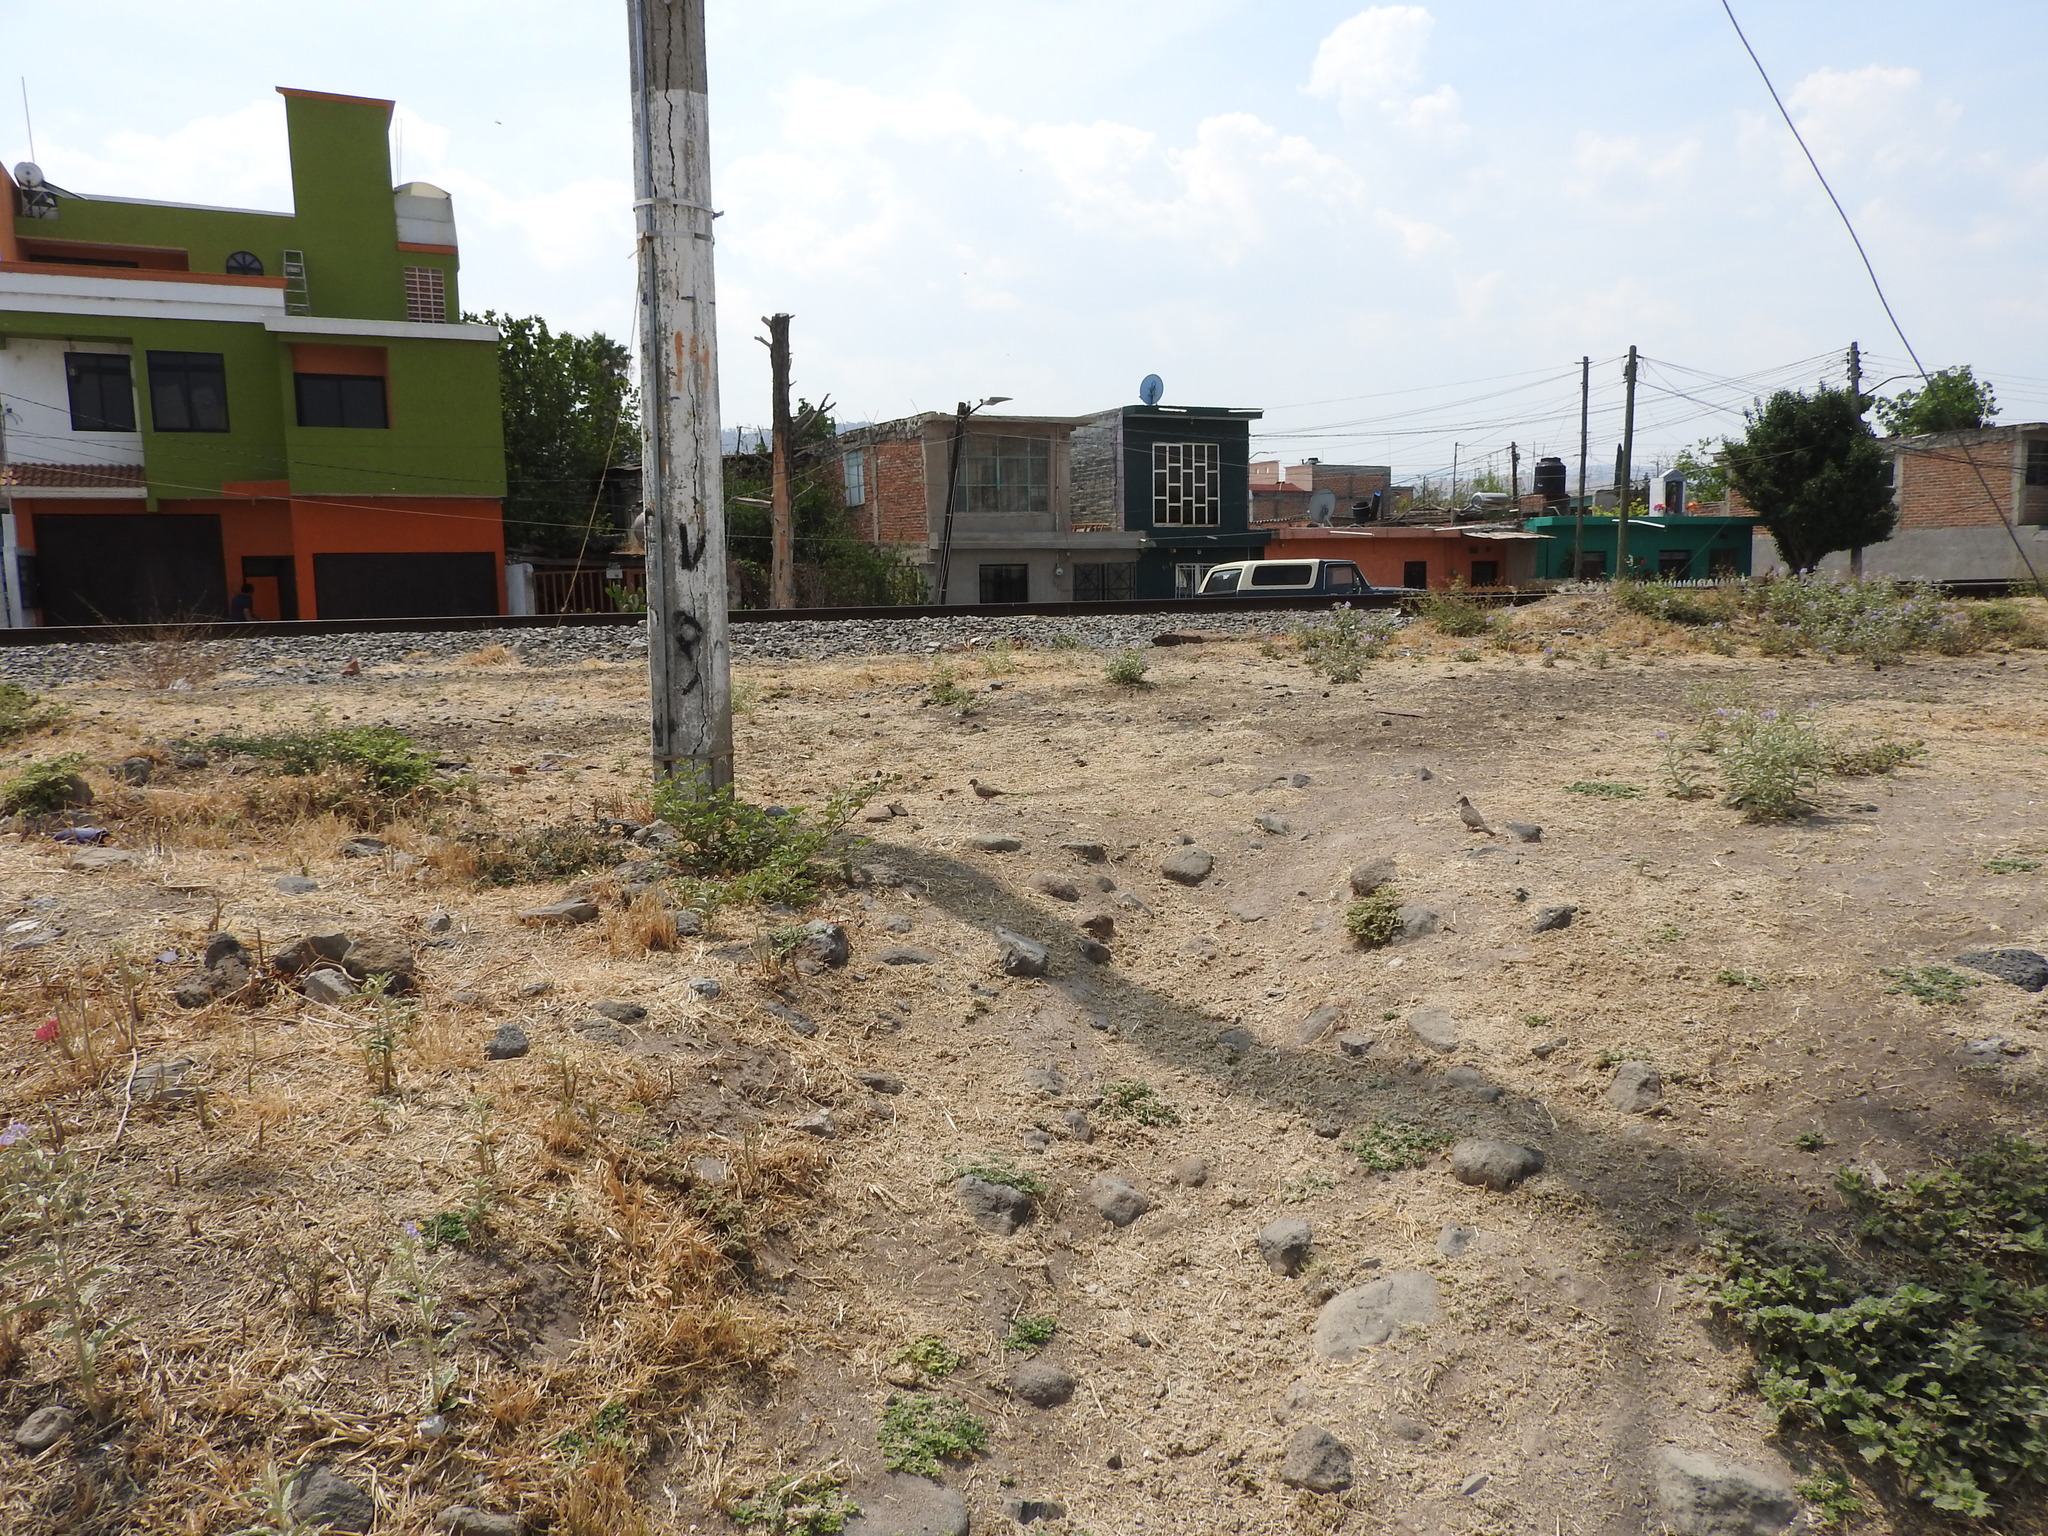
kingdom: Animalia
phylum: Chordata
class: Aves
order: Columbiformes
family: Columbidae
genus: Columbina
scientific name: Columbina inca
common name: Inca dove
